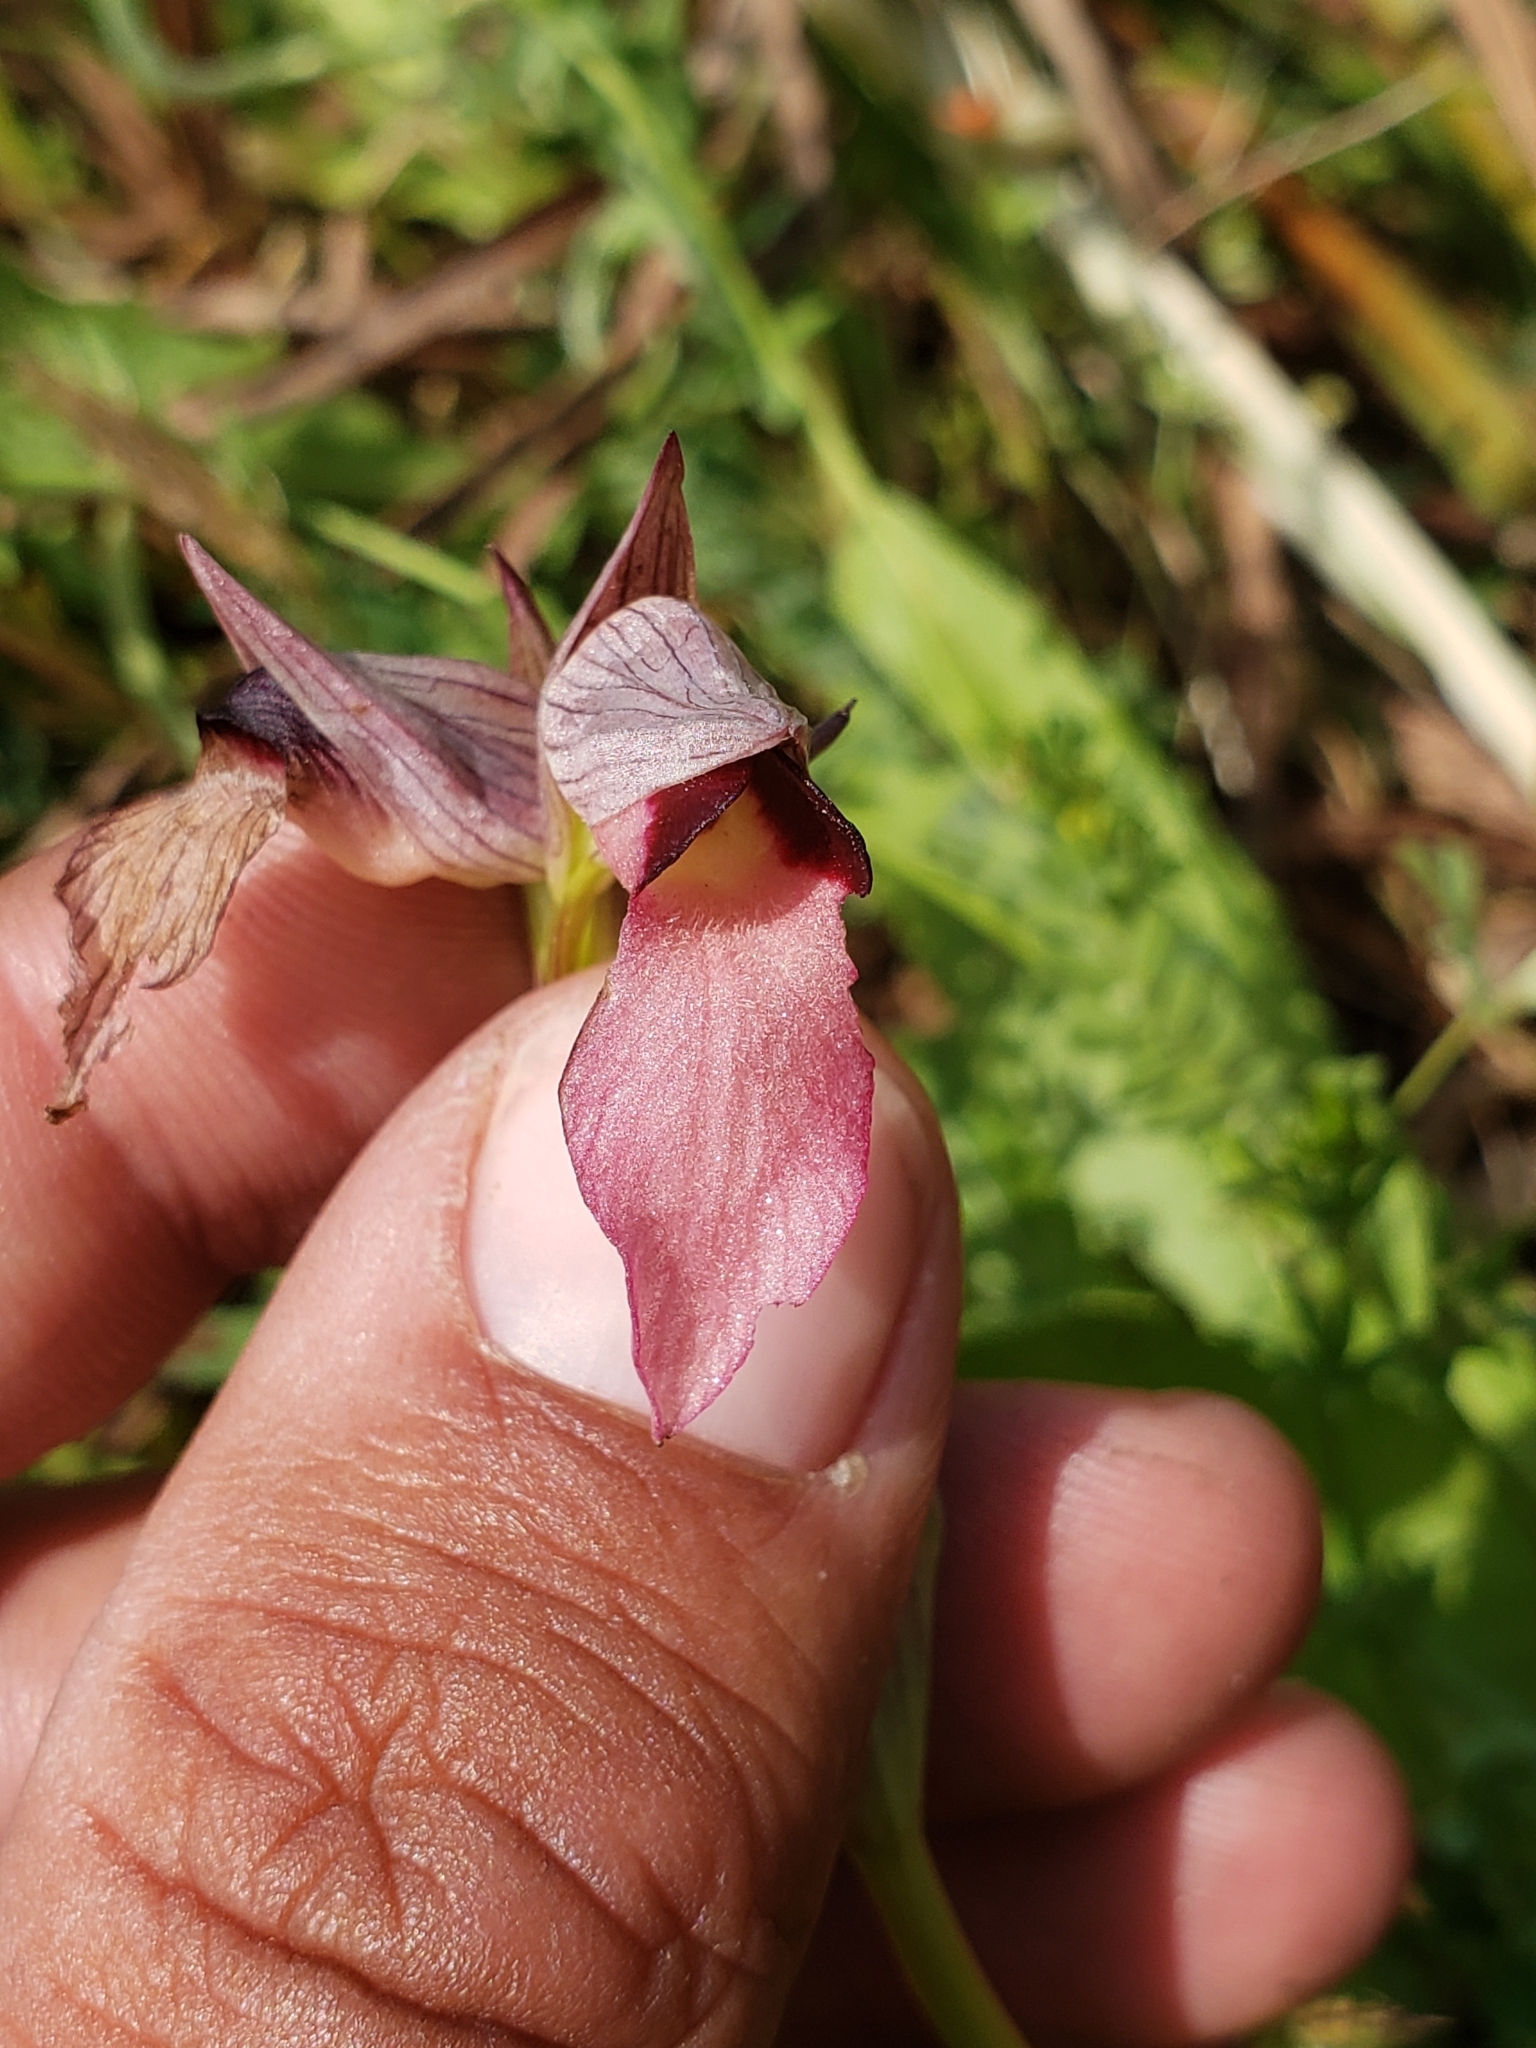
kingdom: Plantae
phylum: Tracheophyta
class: Liliopsida
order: Asparagales
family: Orchidaceae
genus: Serapias
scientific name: Serapias lingua
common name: Tongue-orchid
